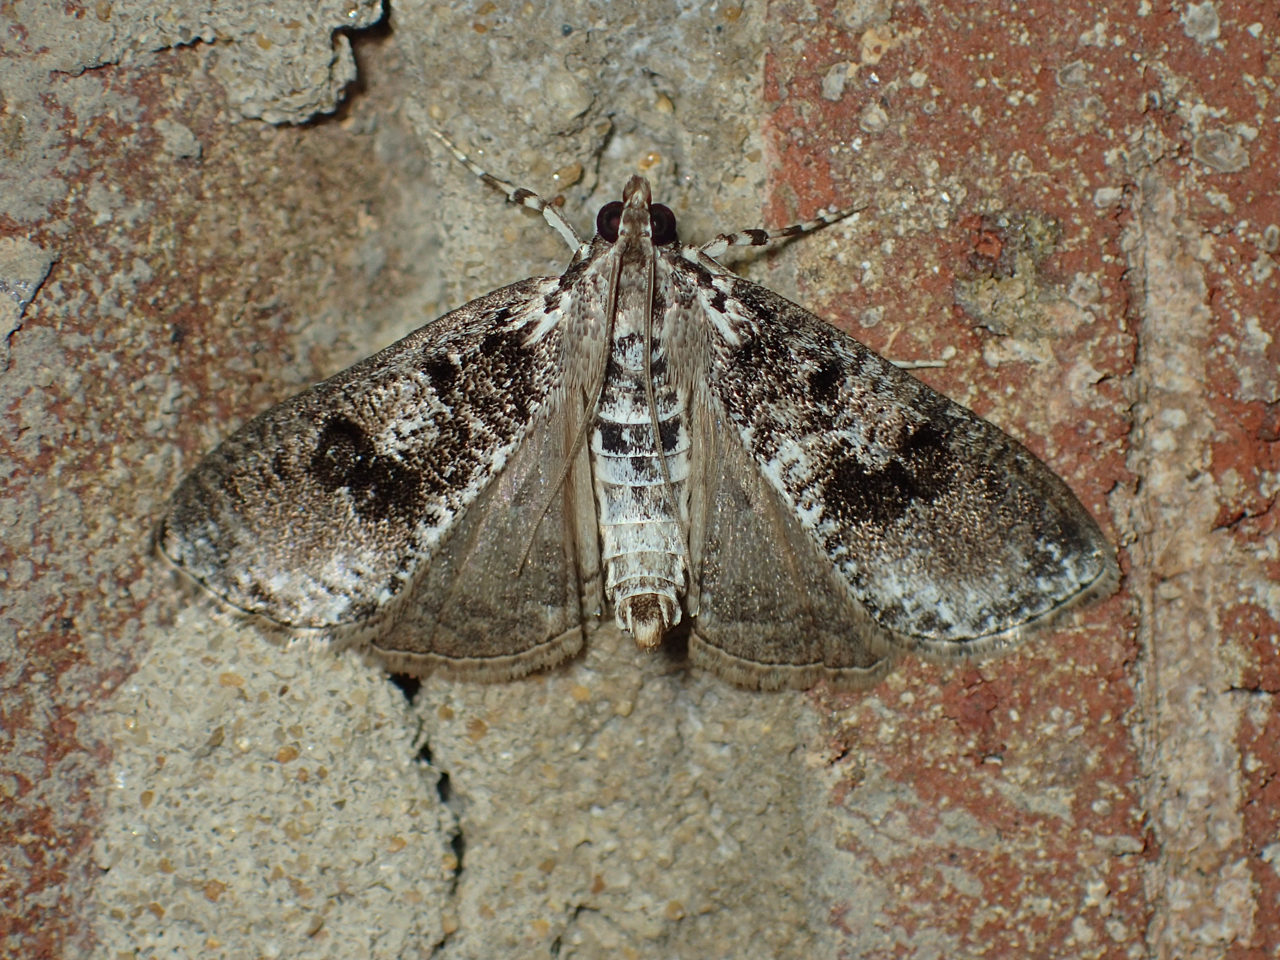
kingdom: Animalia
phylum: Arthropoda
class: Insecta
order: Lepidoptera
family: Crambidae
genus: Palpita
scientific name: Palpita magniferalis
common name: Splendid palpita moth
